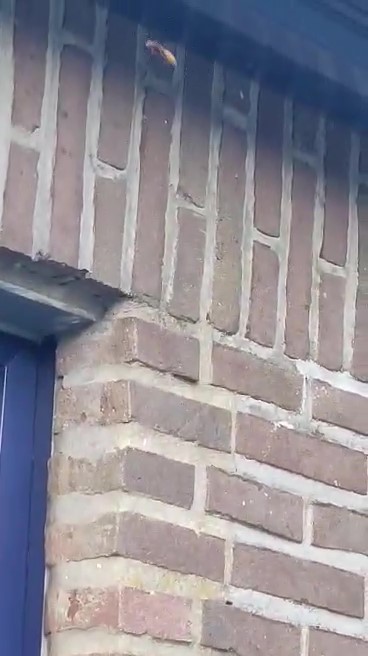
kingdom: Animalia
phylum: Arthropoda
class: Insecta
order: Hymenoptera
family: Vespidae
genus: Vespa
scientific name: Vespa crabro
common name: Hornet
